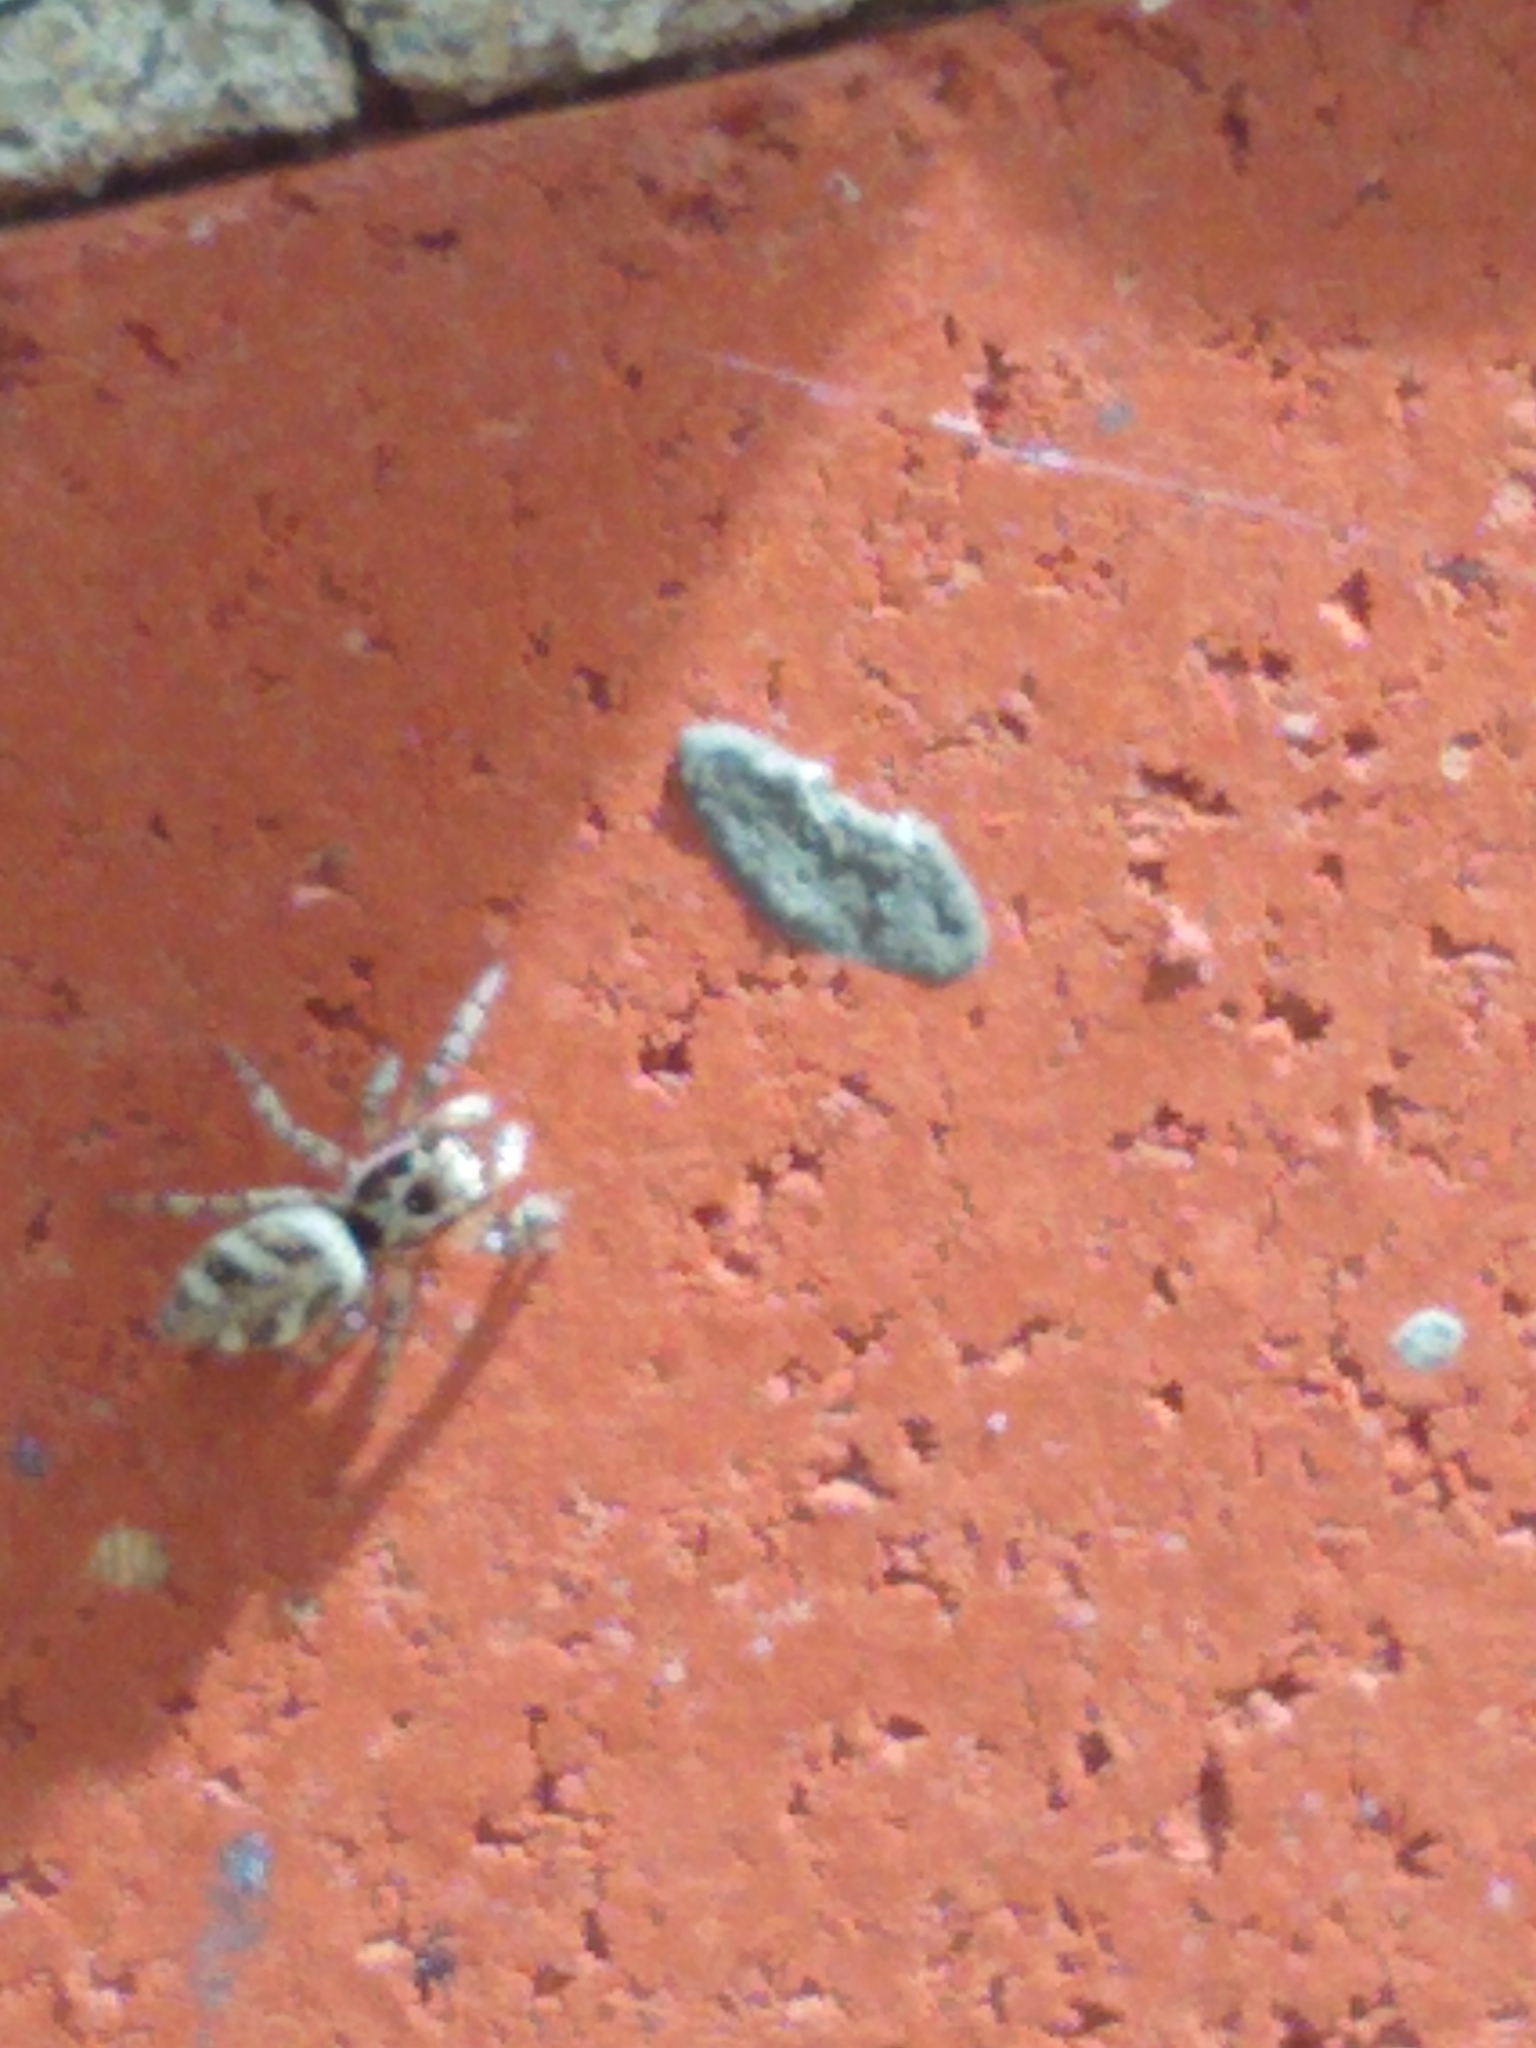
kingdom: Animalia
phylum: Arthropoda
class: Arachnida
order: Araneae
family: Salticidae
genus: Salticus
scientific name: Salticus scenicus
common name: Zebra jumper
